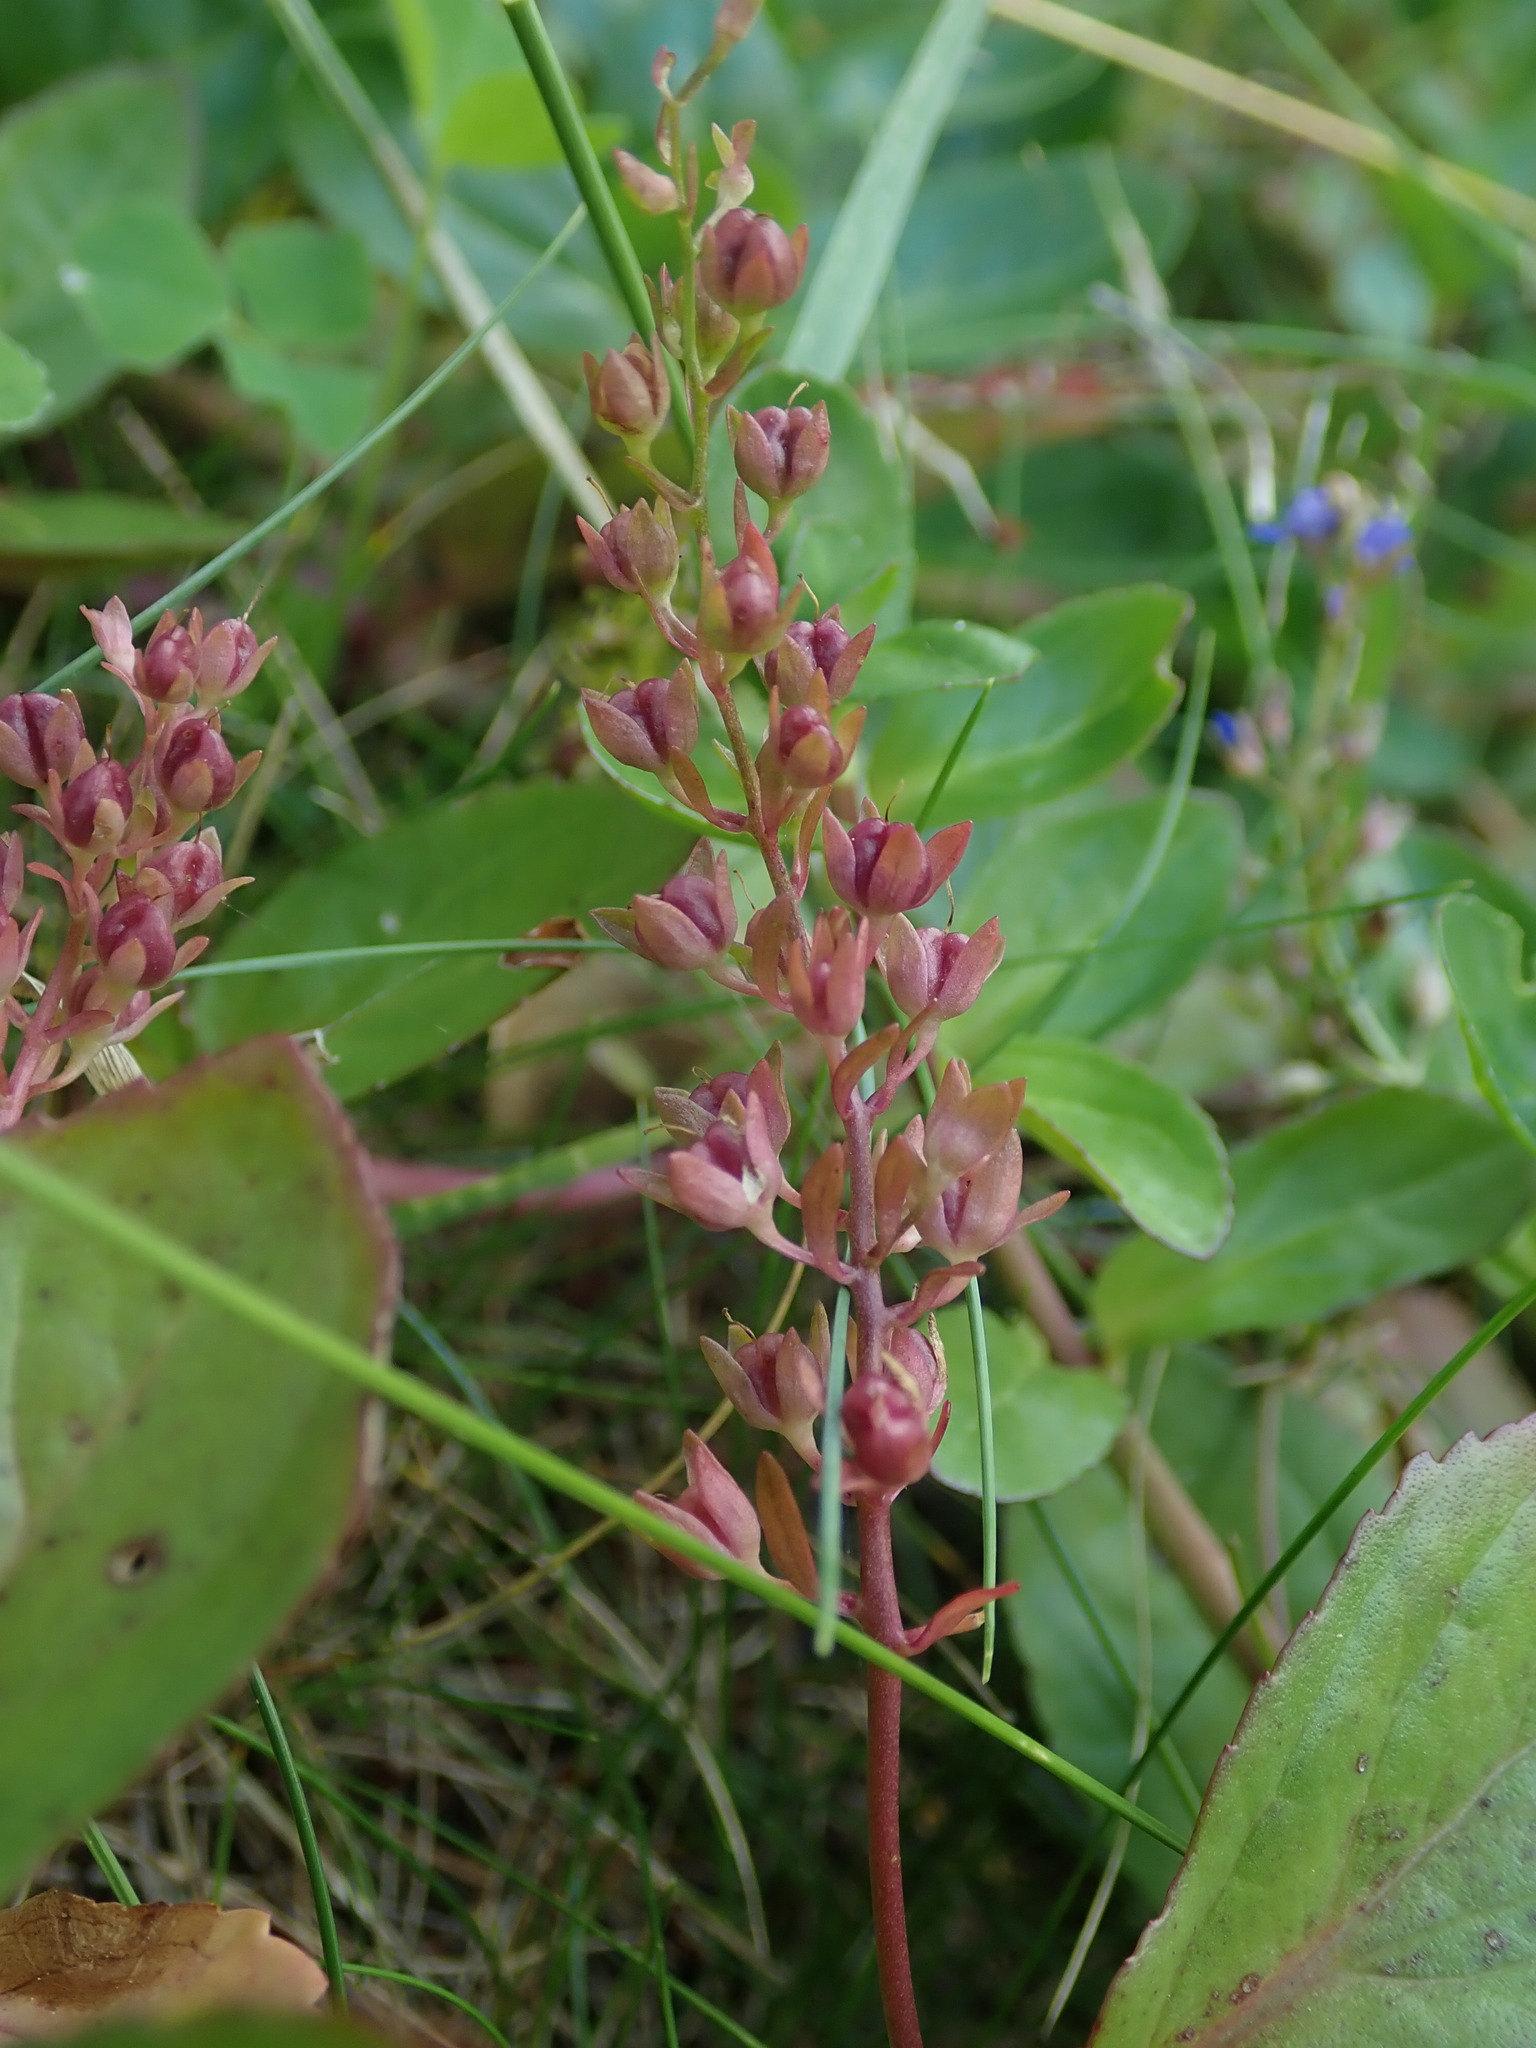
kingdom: Plantae
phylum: Tracheophyta
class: Magnoliopsida
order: Lamiales
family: Plantaginaceae
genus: Veronica
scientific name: Veronica beccabunga
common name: Brooklime
